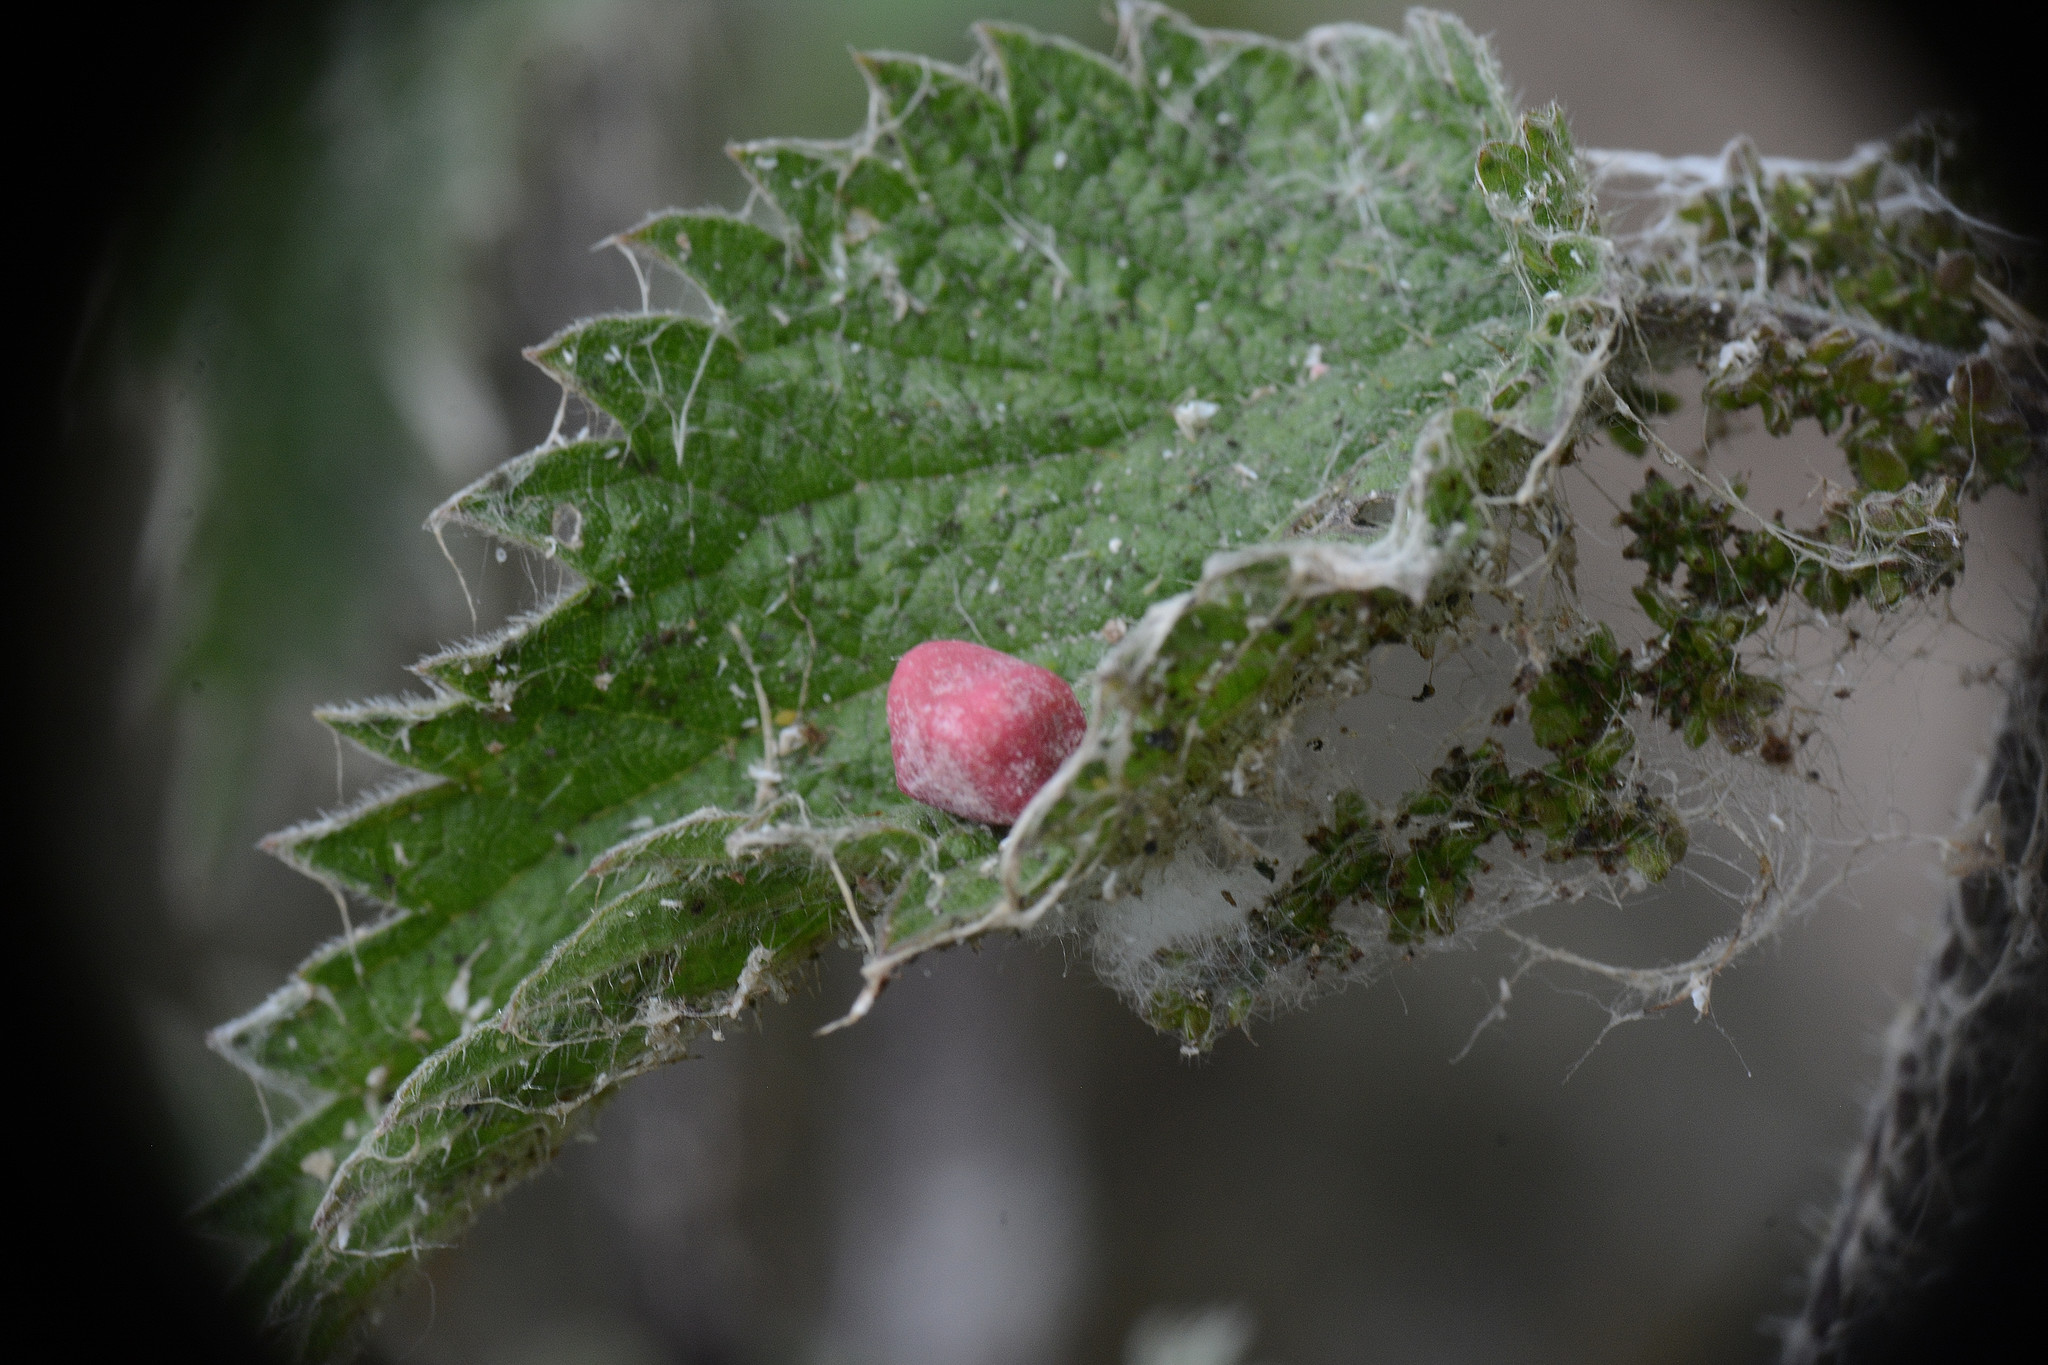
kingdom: Animalia
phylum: Arthropoda
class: Insecta
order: Diptera
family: Cecidomyiidae
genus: Dasineura
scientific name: Dasineura urticae
